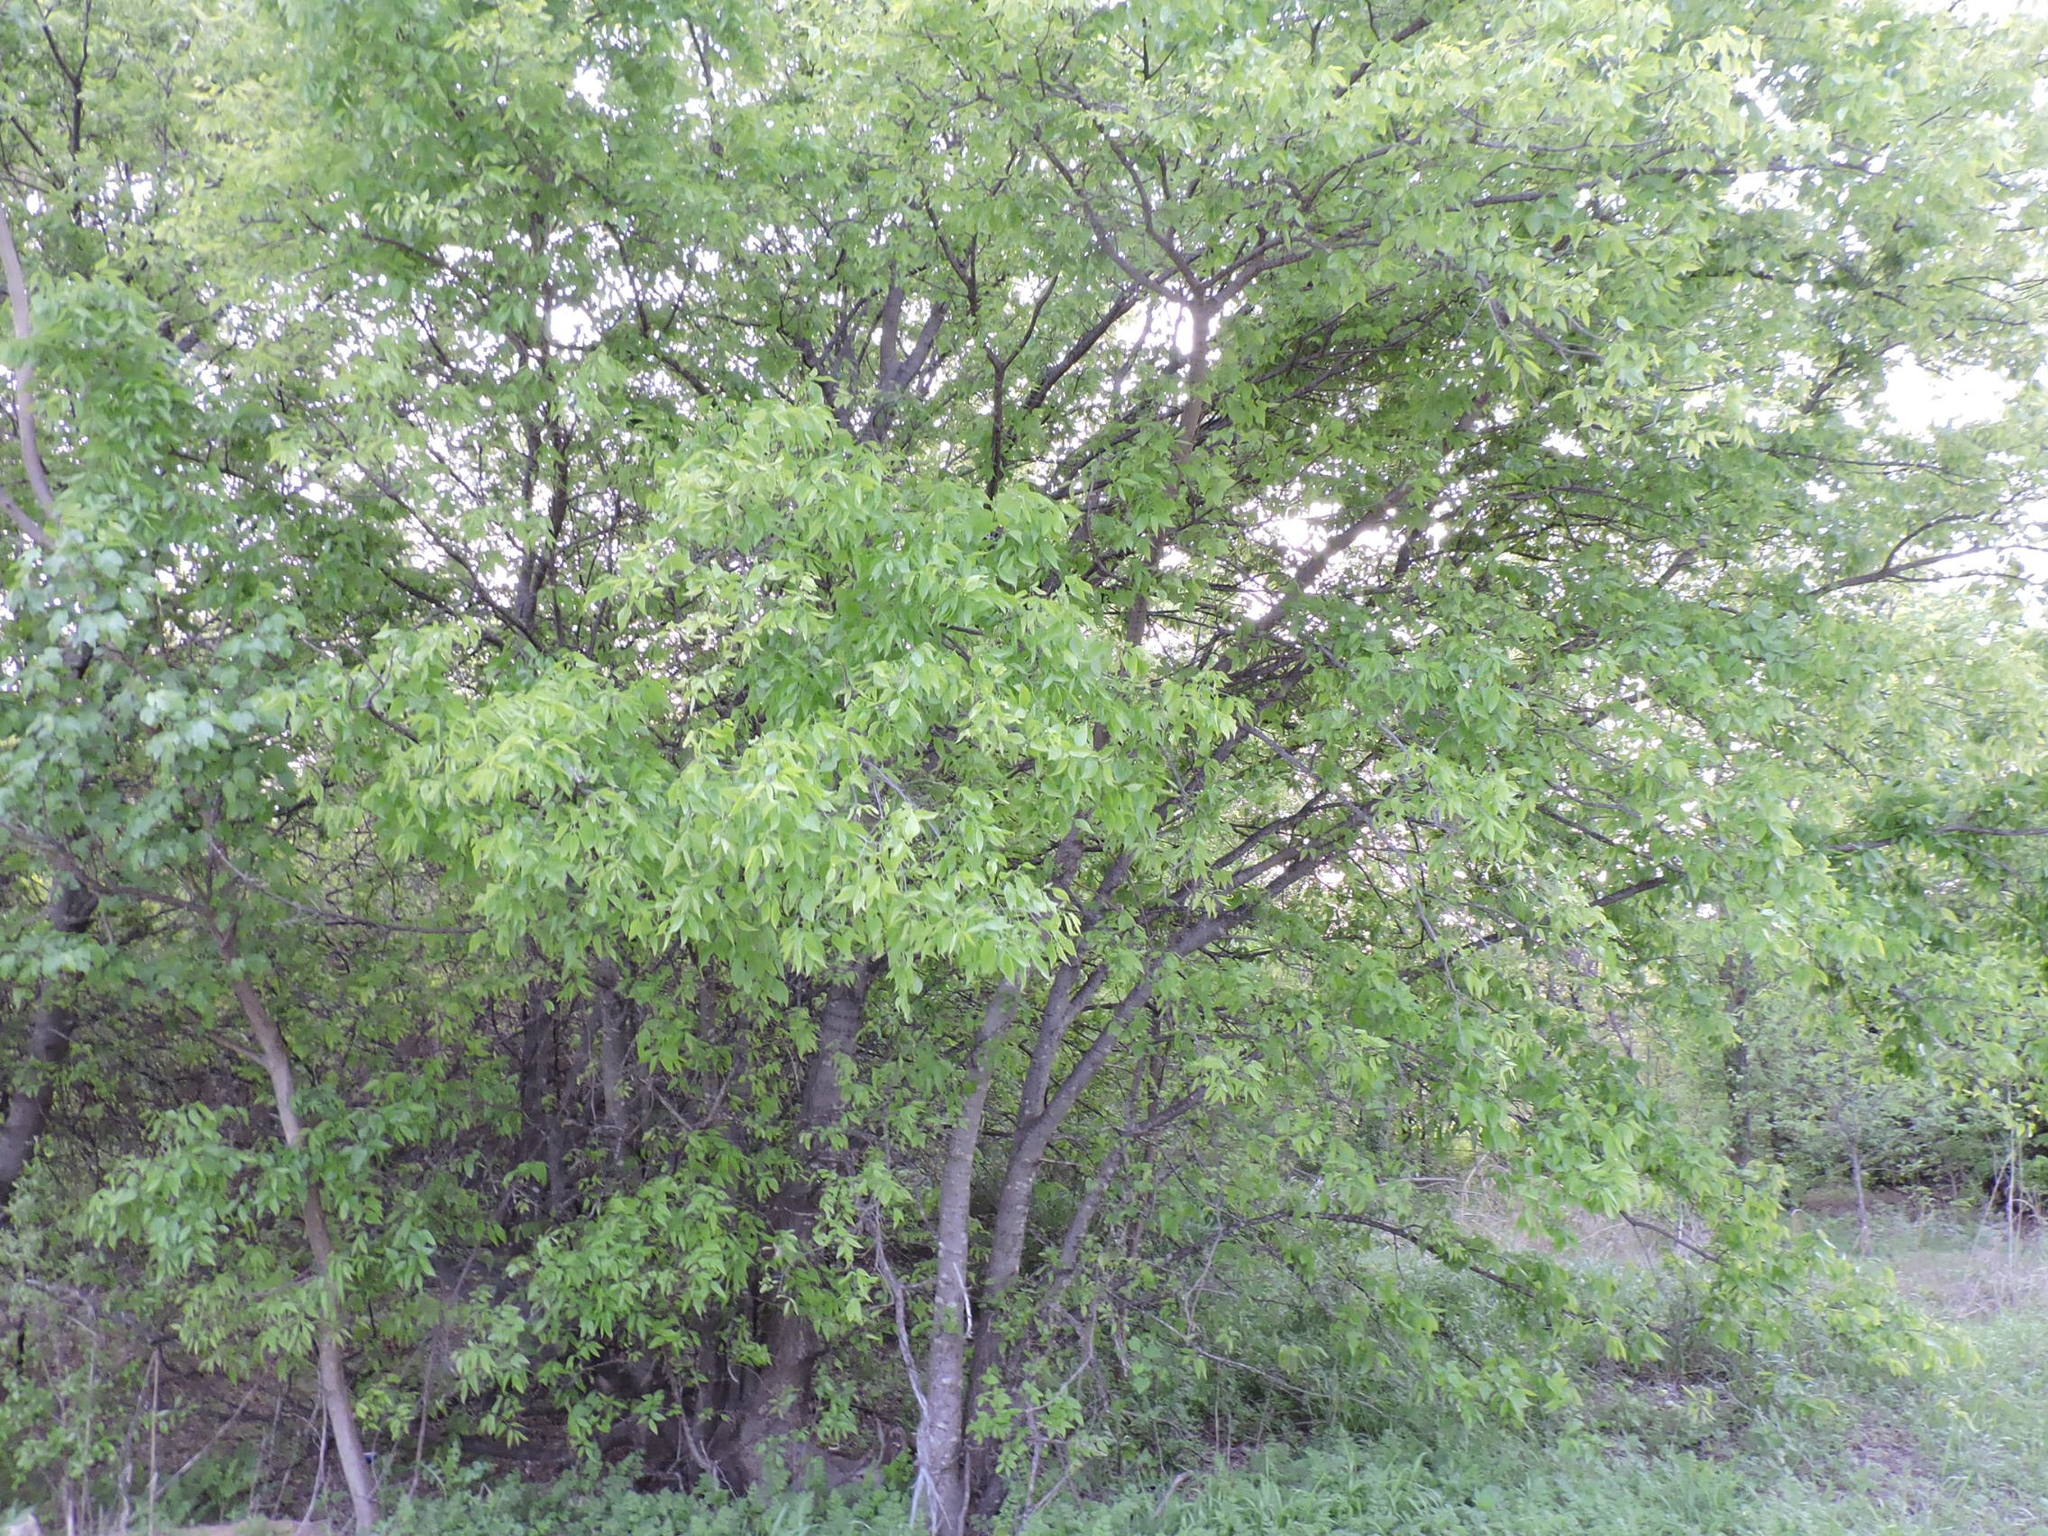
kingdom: Plantae
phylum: Tracheophyta
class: Magnoliopsida
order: Rosales
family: Cannabaceae
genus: Celtis
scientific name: Celtis laevigata
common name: Sugarberry
